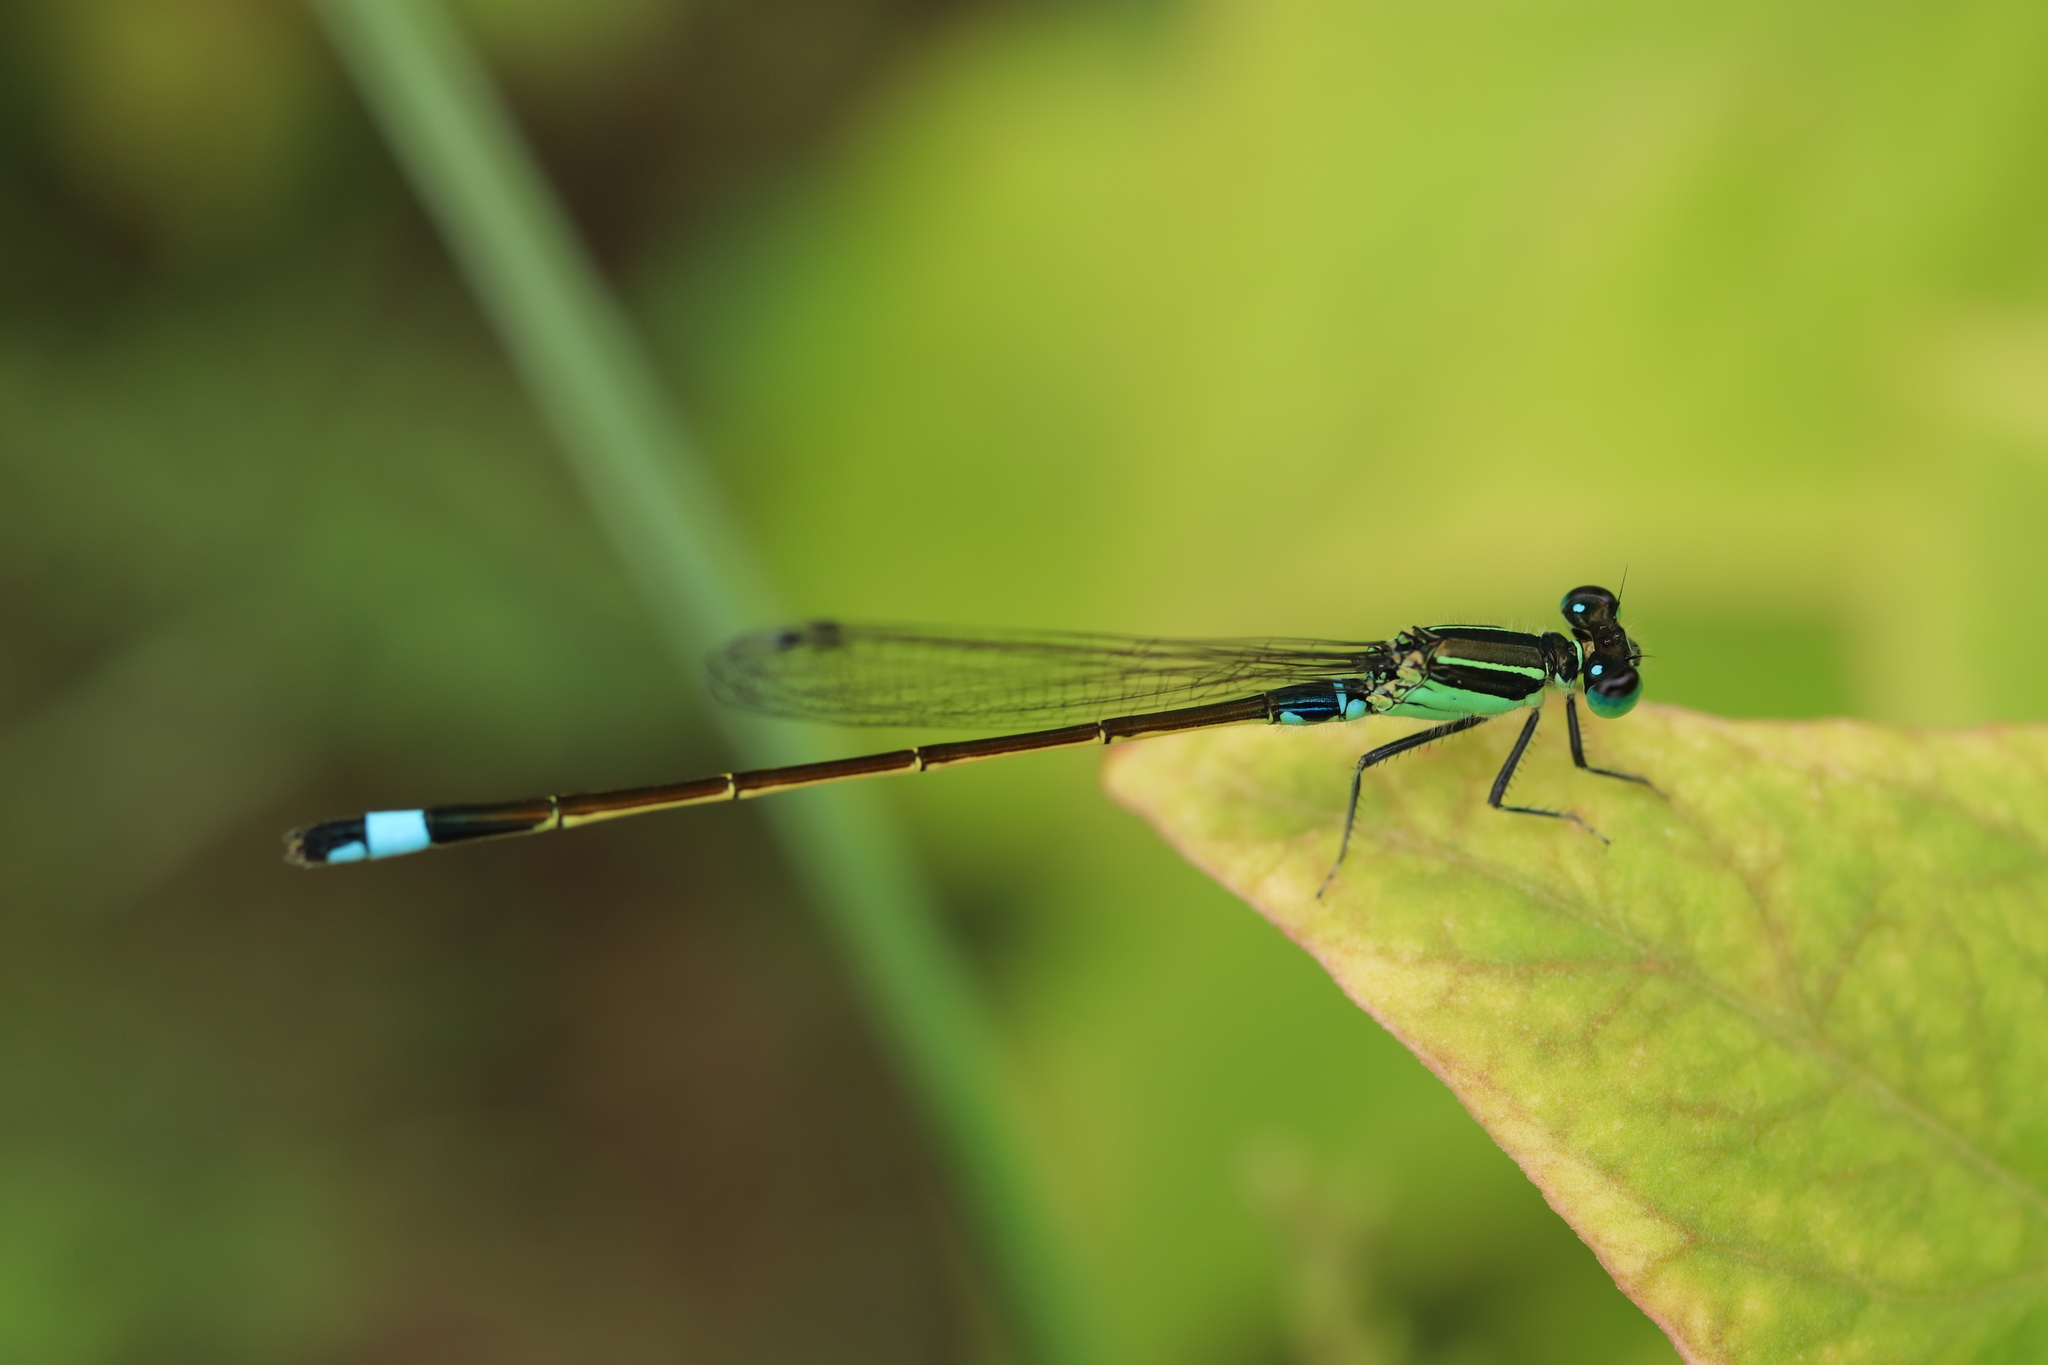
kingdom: Animalia
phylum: Arthropoda
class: Insecta
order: Odonata
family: Coenagrionidae
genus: Ischnura
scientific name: Ischnura senegalensis
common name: Tropical bluetail
